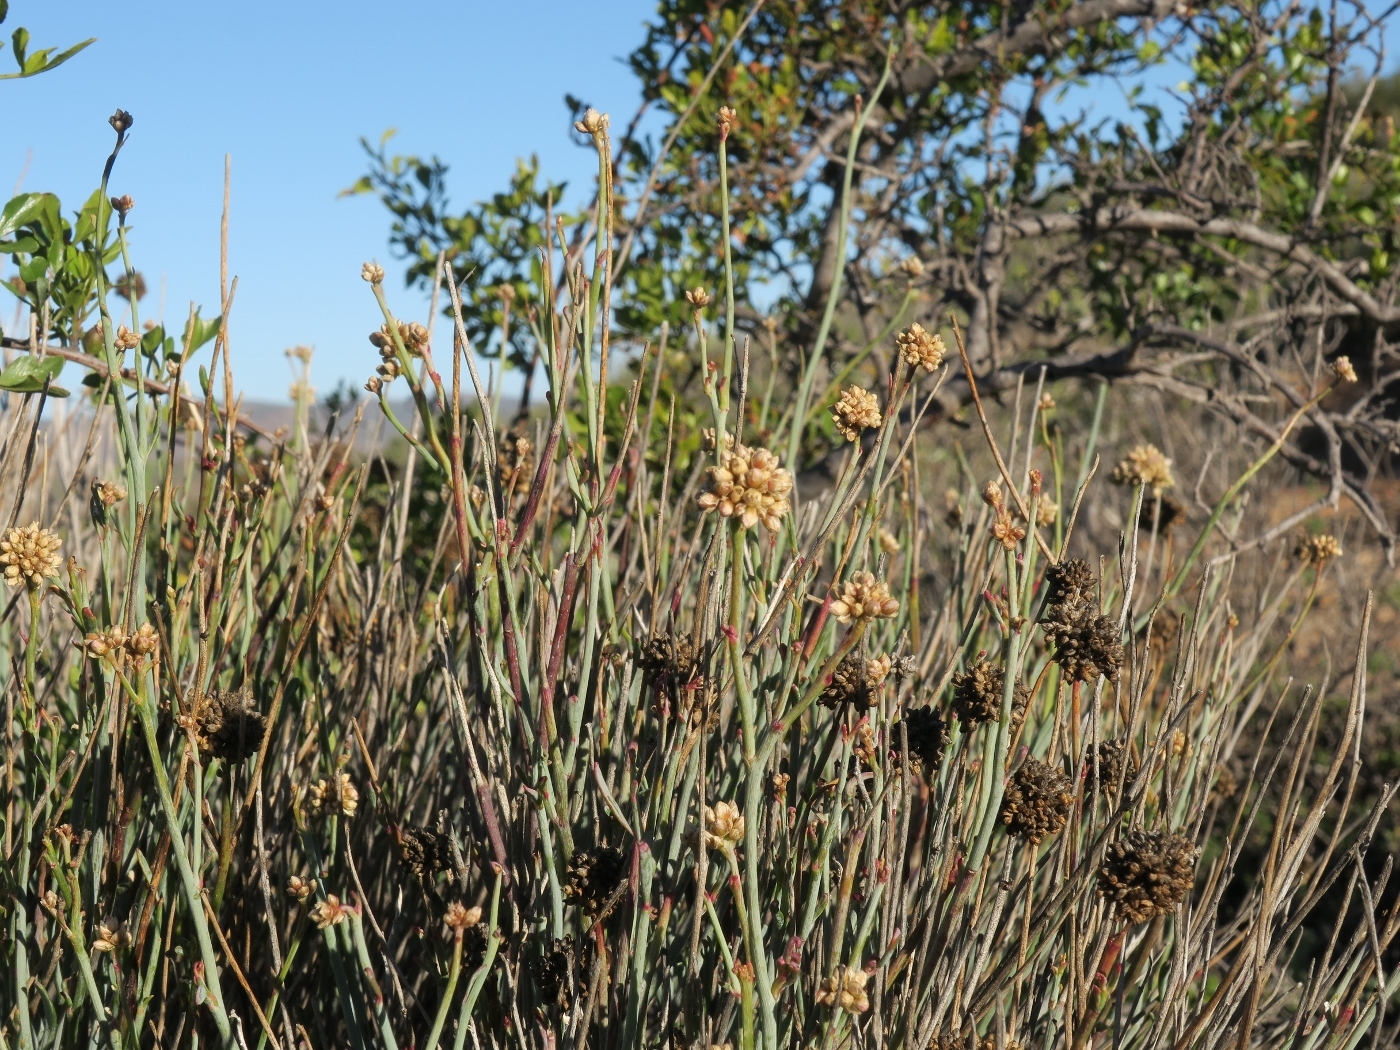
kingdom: Plantae
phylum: Tracheophyta
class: Magnoliopsida
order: Caryophyllales
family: Amaranthaceae
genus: Hermbstaedtia
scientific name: Hermbstaedtia glauca
